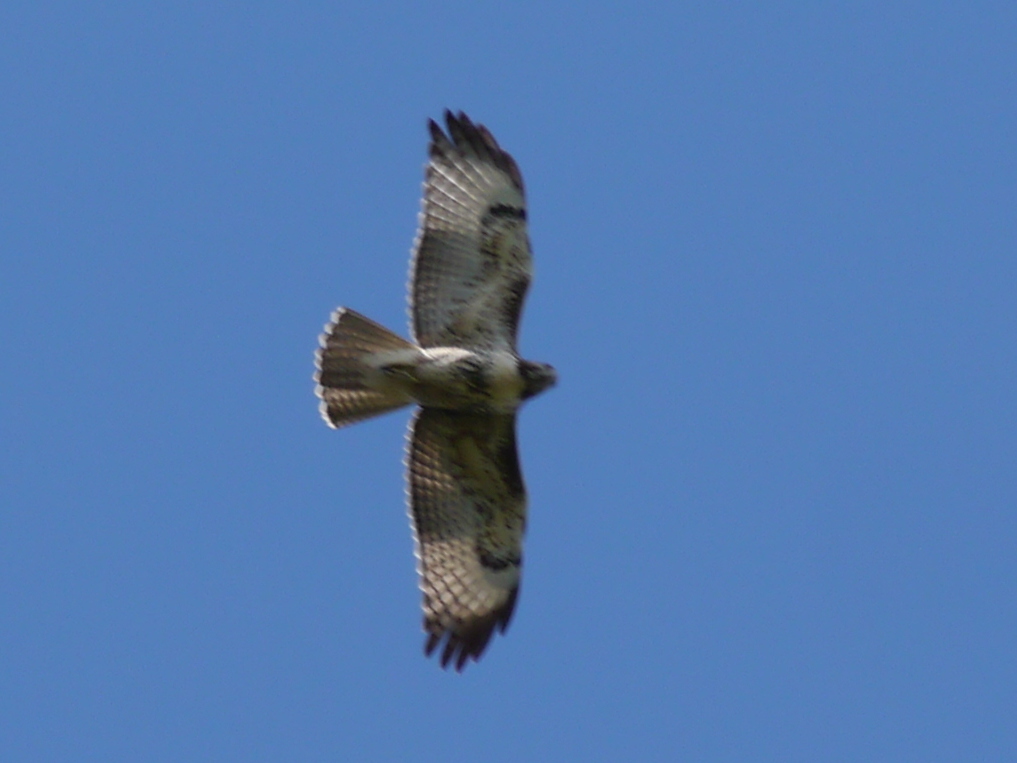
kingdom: Animalia
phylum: Chordata
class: Aves
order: Accipitriformes
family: Accipitridae
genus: Buteo
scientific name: Buteo jamaicensis
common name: Red-tailed hawk
